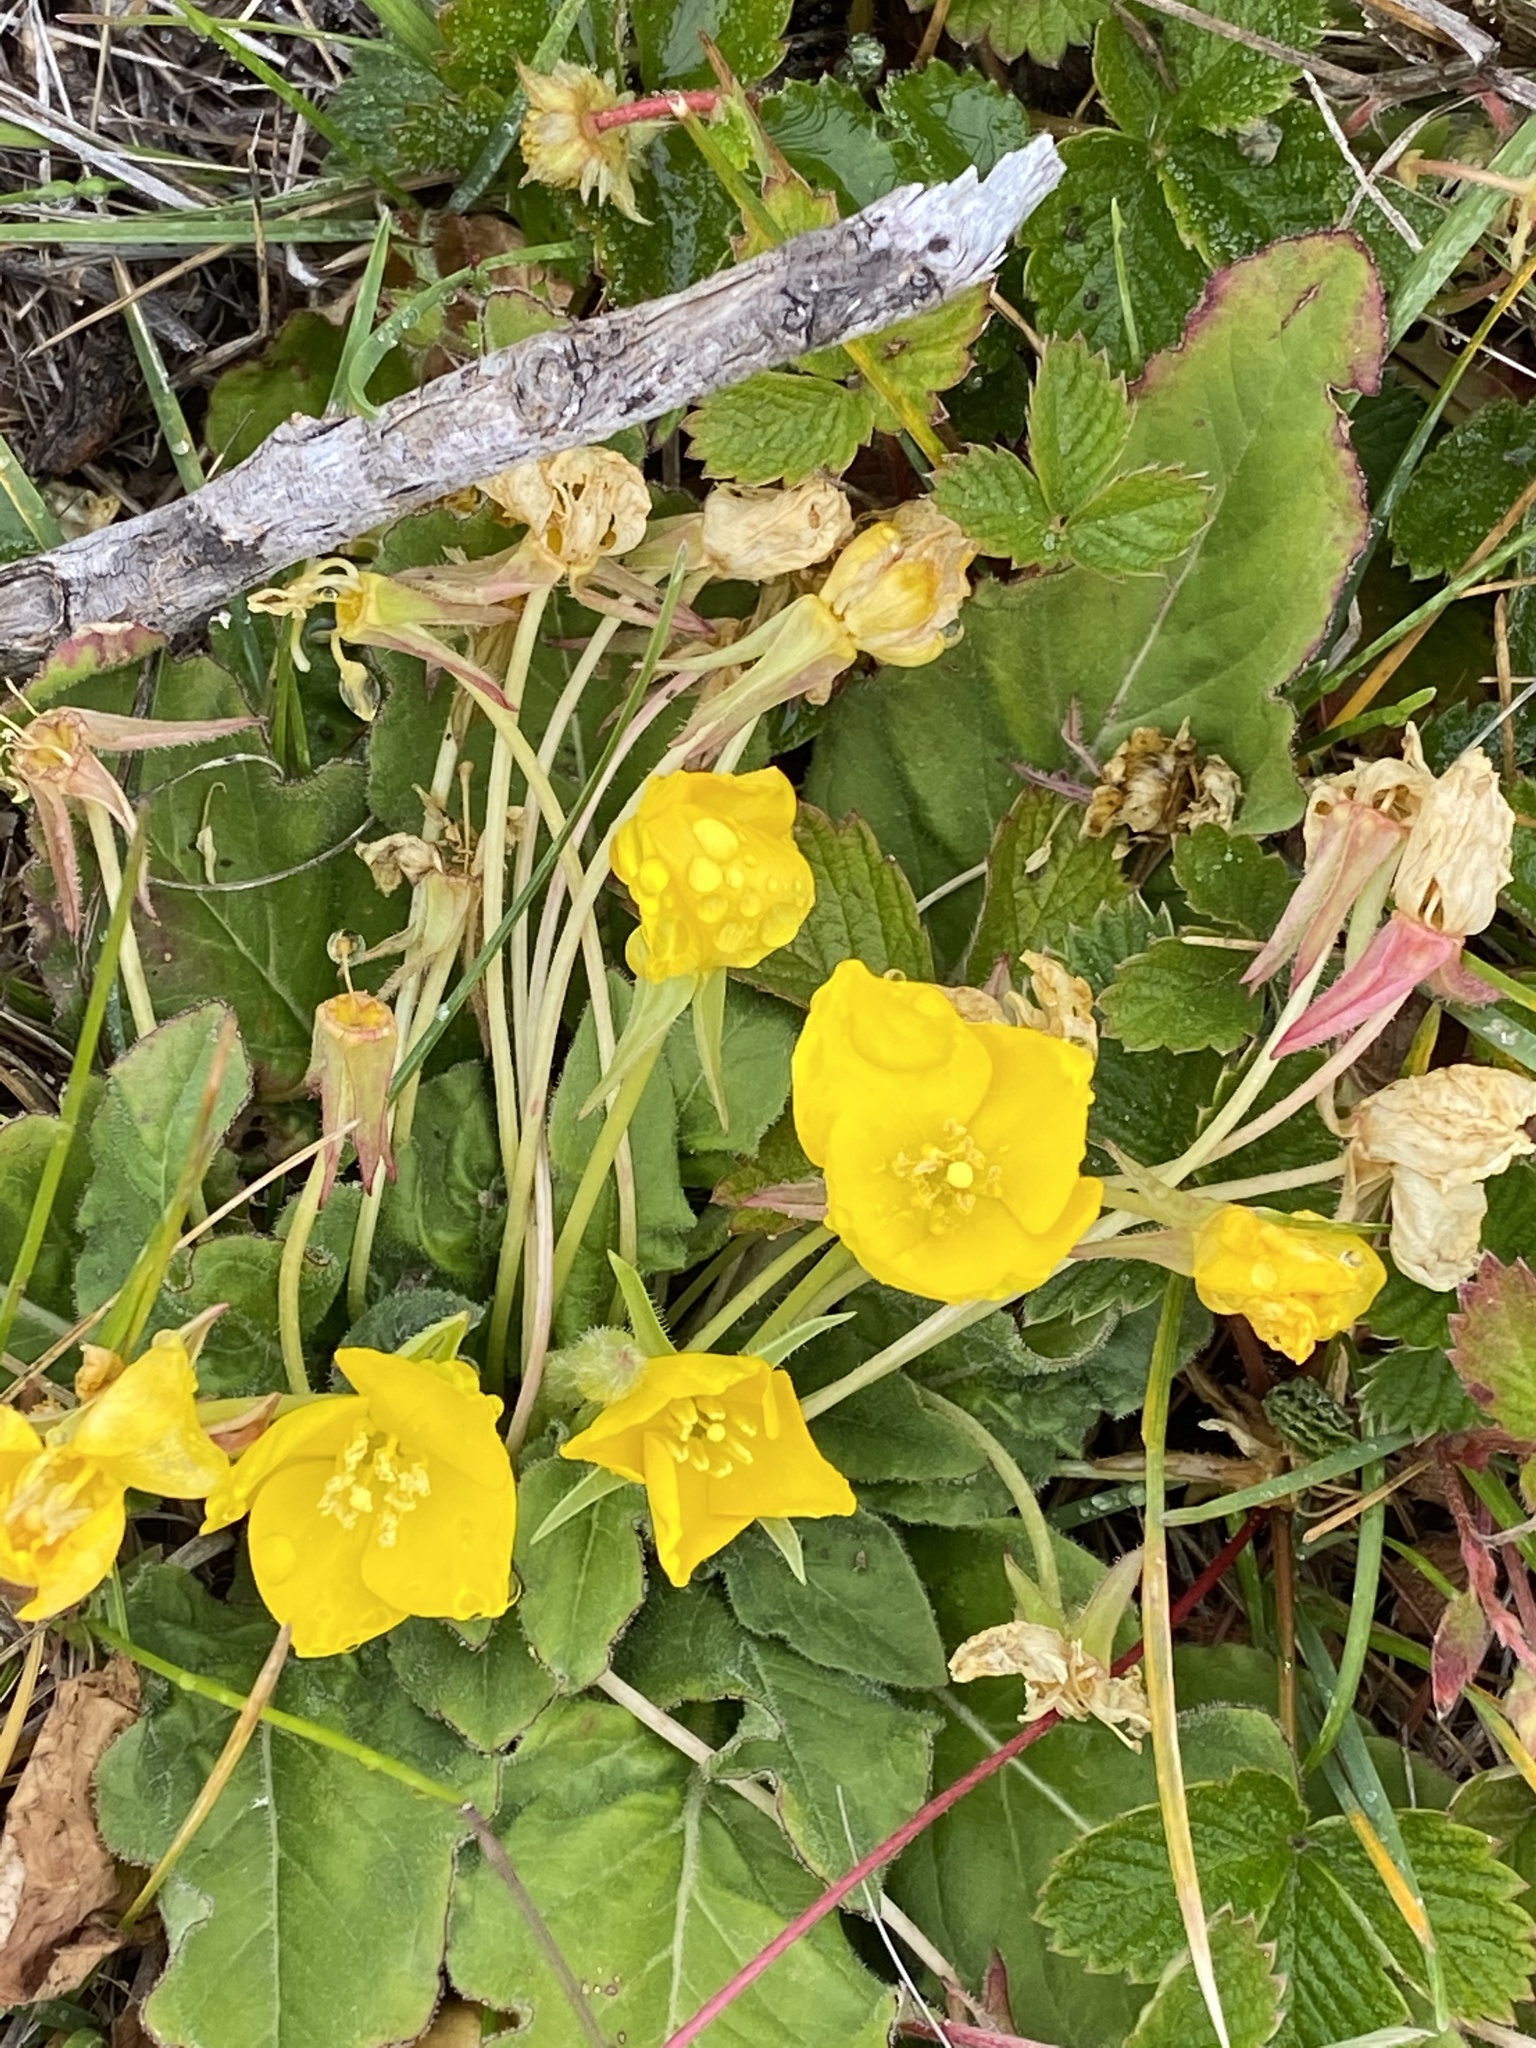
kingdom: Plantae
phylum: Tracheophyta
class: Magnoliopsida
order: Myrtales
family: Onagraceae
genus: Taraxia
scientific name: Taraxia ovata
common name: Goldeneggs
